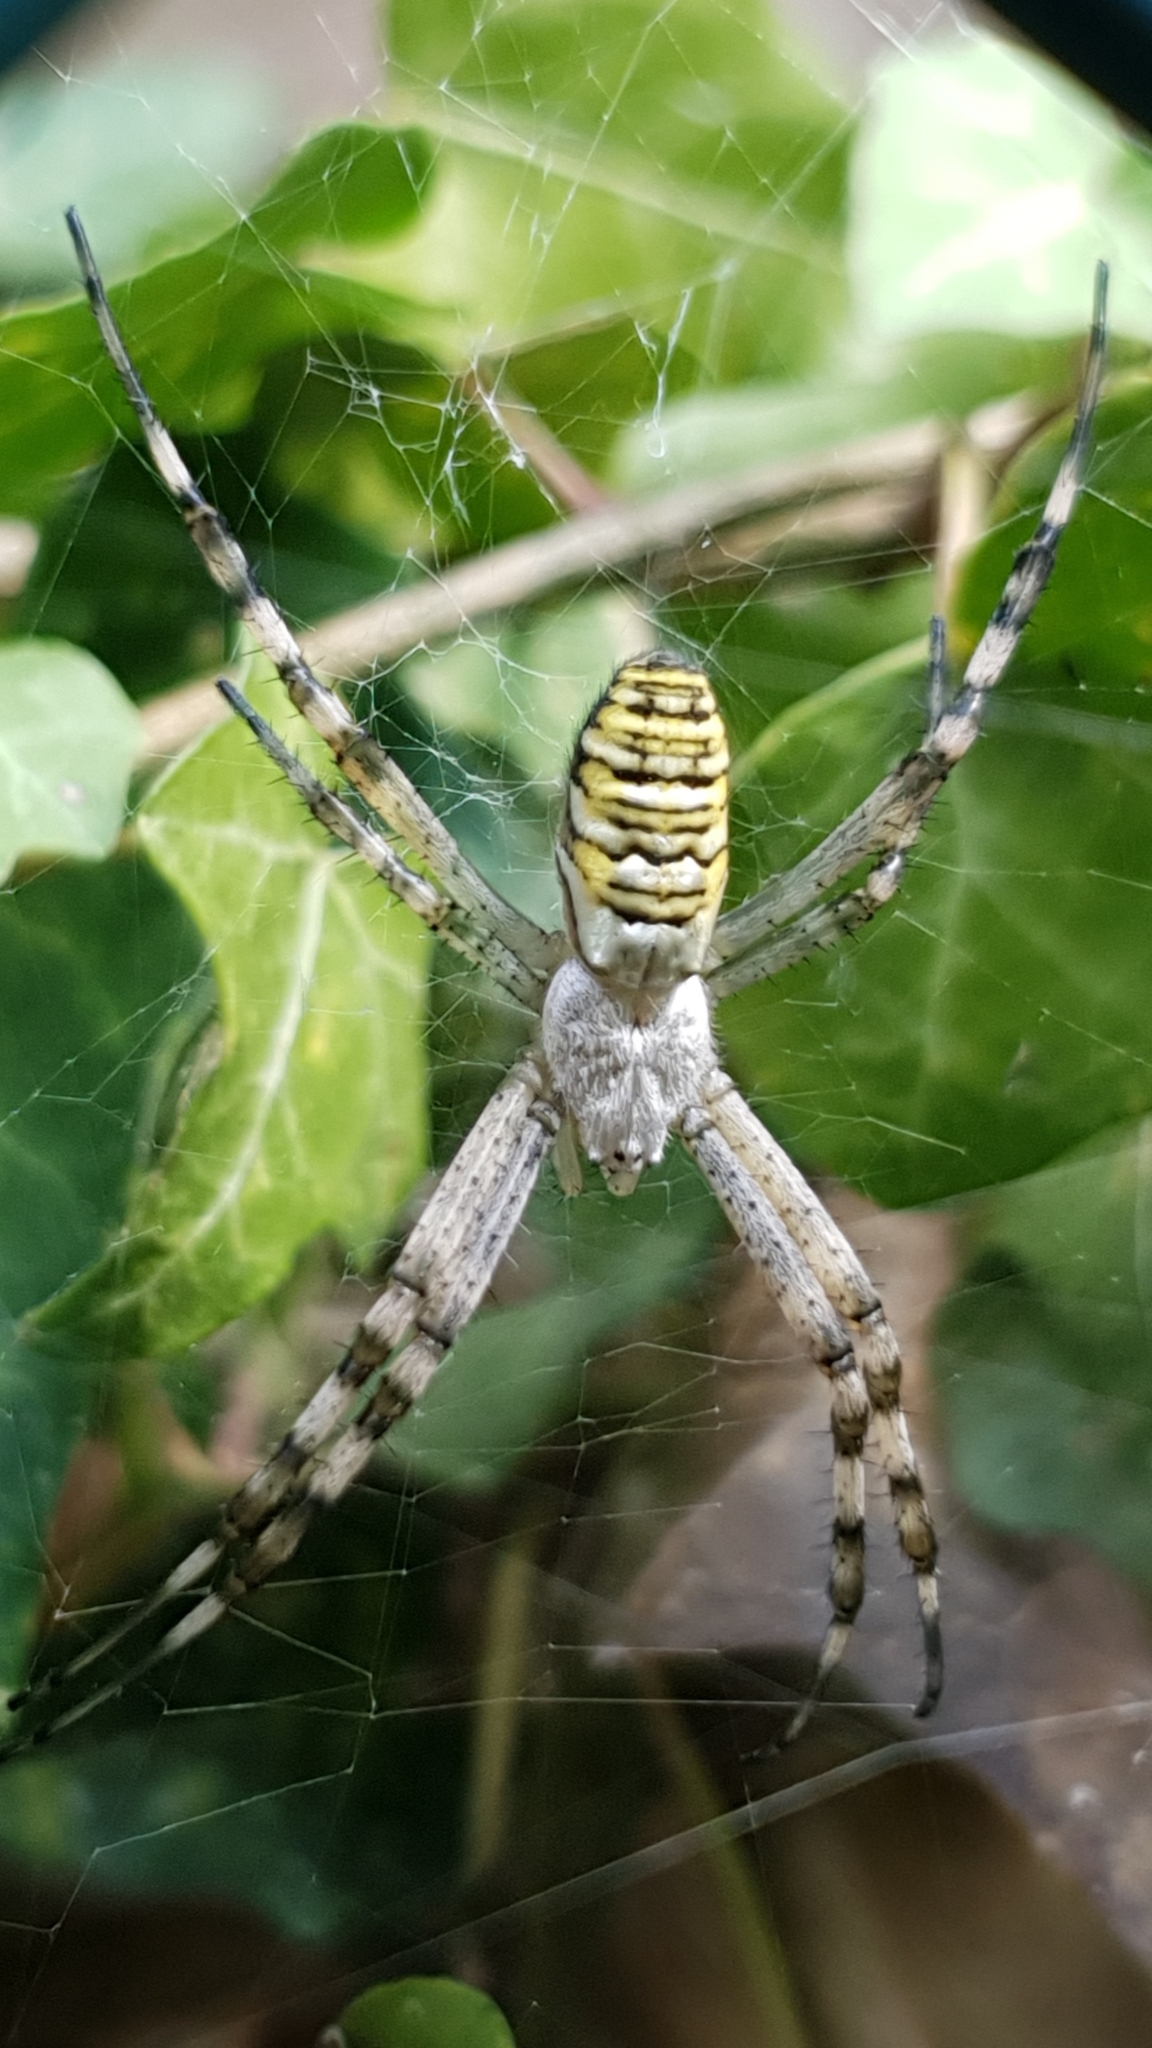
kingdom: Animalia
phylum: Arthropoda
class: Arachnida
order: Araneae
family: Araneidae
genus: Argiope
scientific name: Argiope bruennichi
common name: Wasp spider
